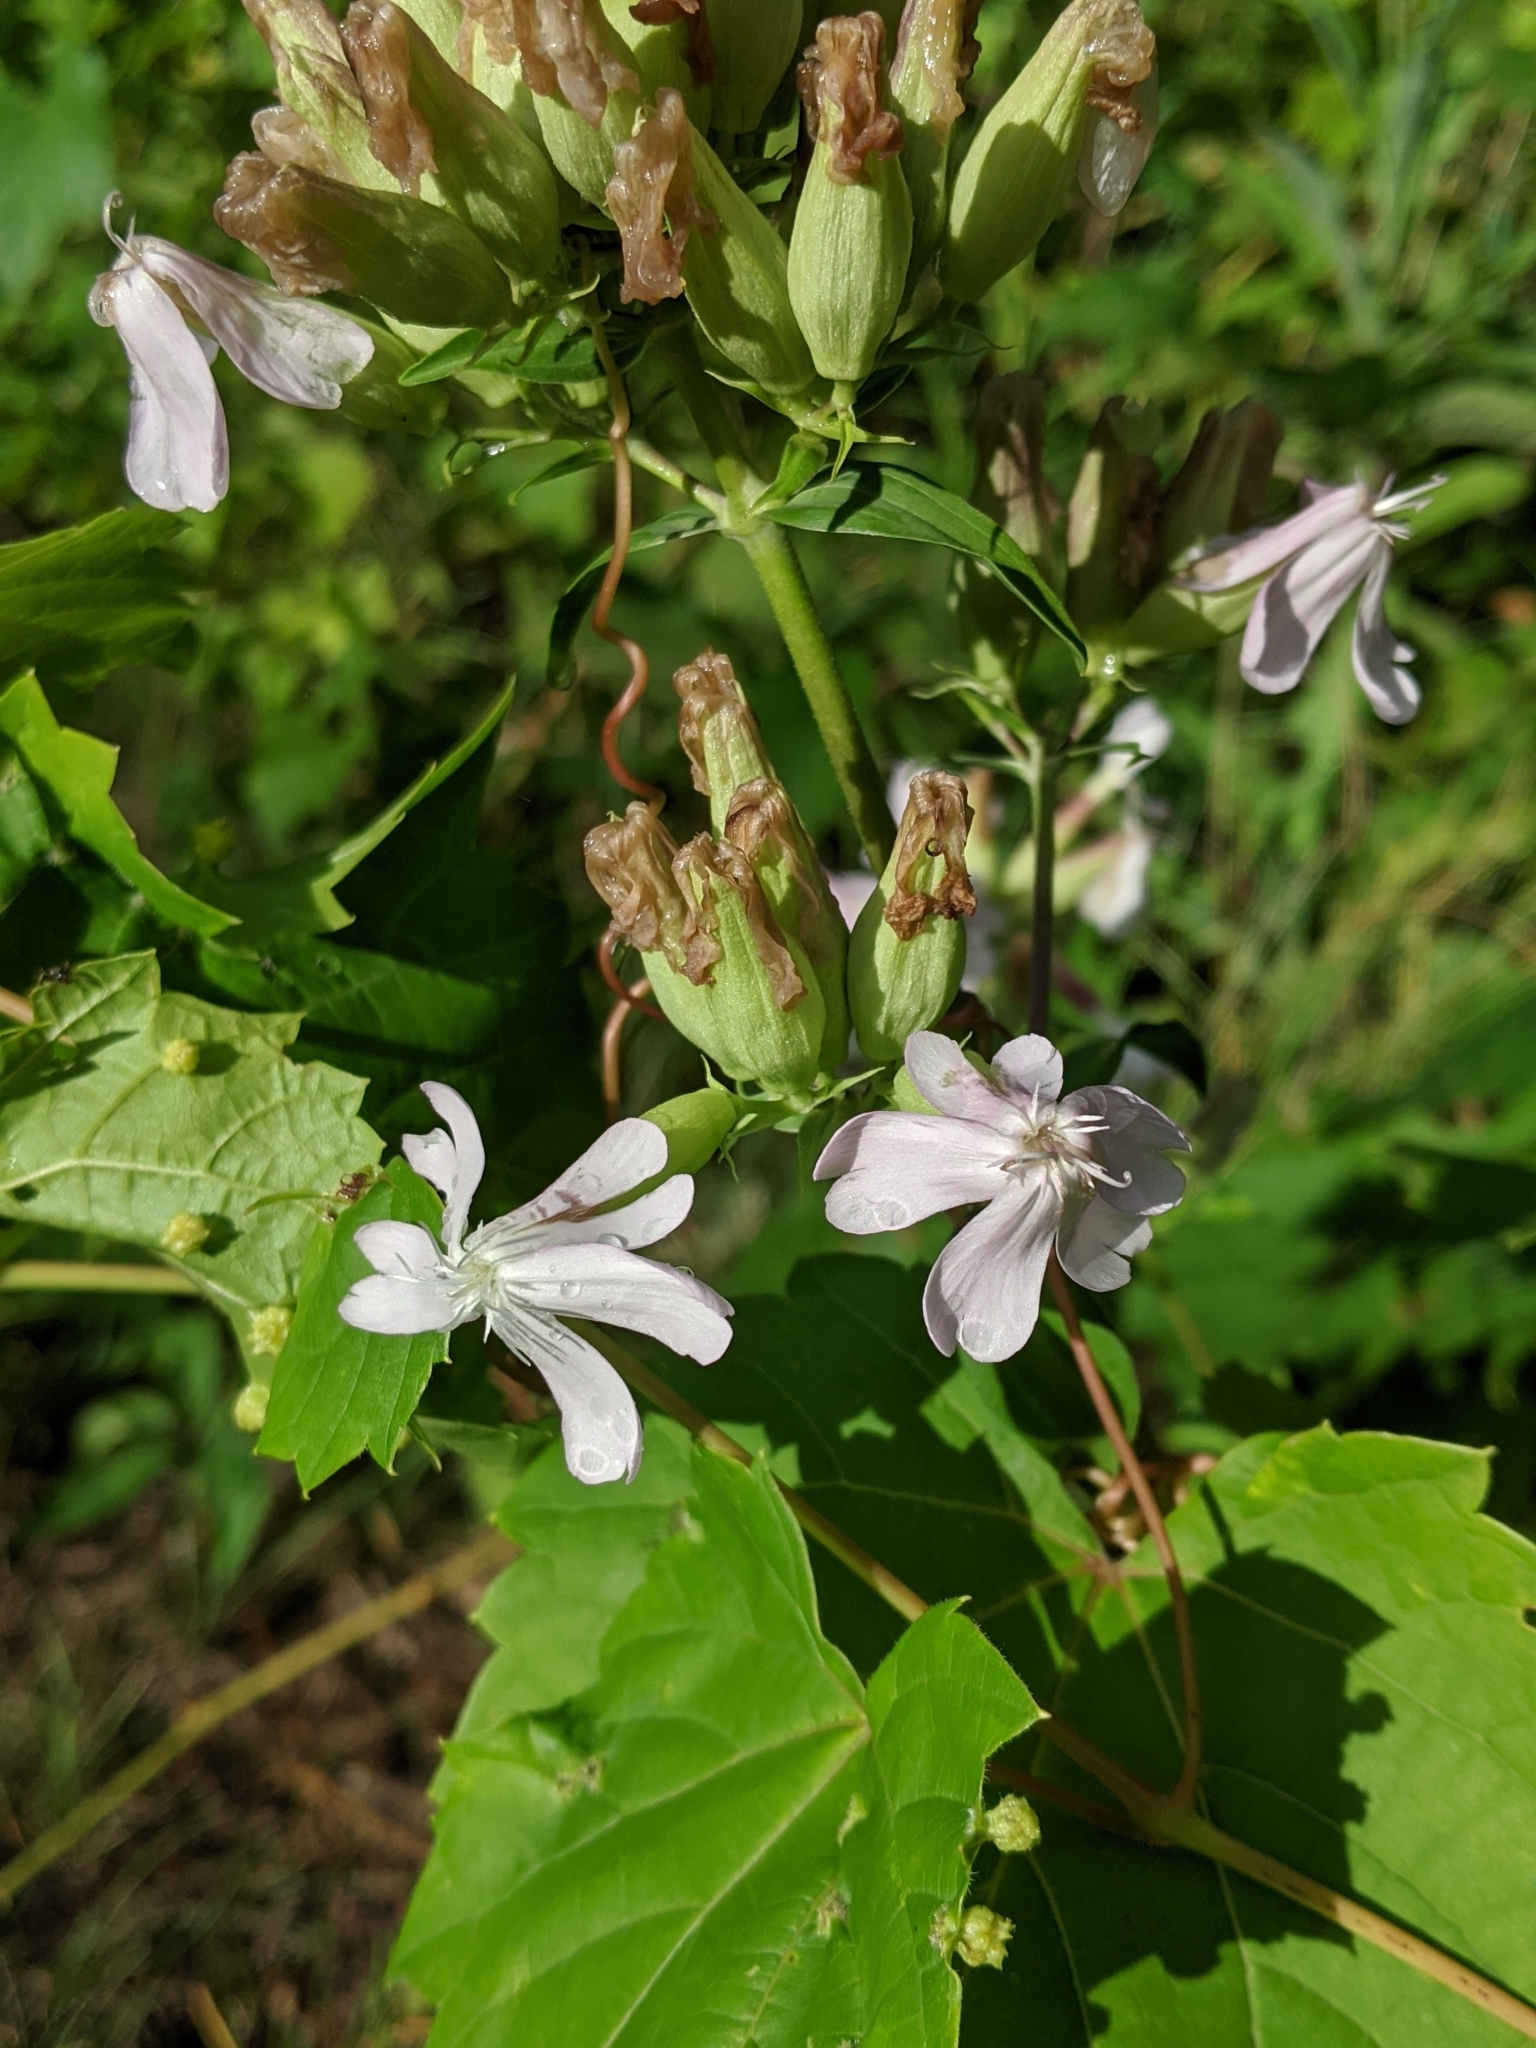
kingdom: Plantae
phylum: Tracheophyta
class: Magnoliopsida
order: Caryophyllales
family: Caryophyllaceae
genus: Saponaria
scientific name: Saponaria officinalis
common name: Soapwort
